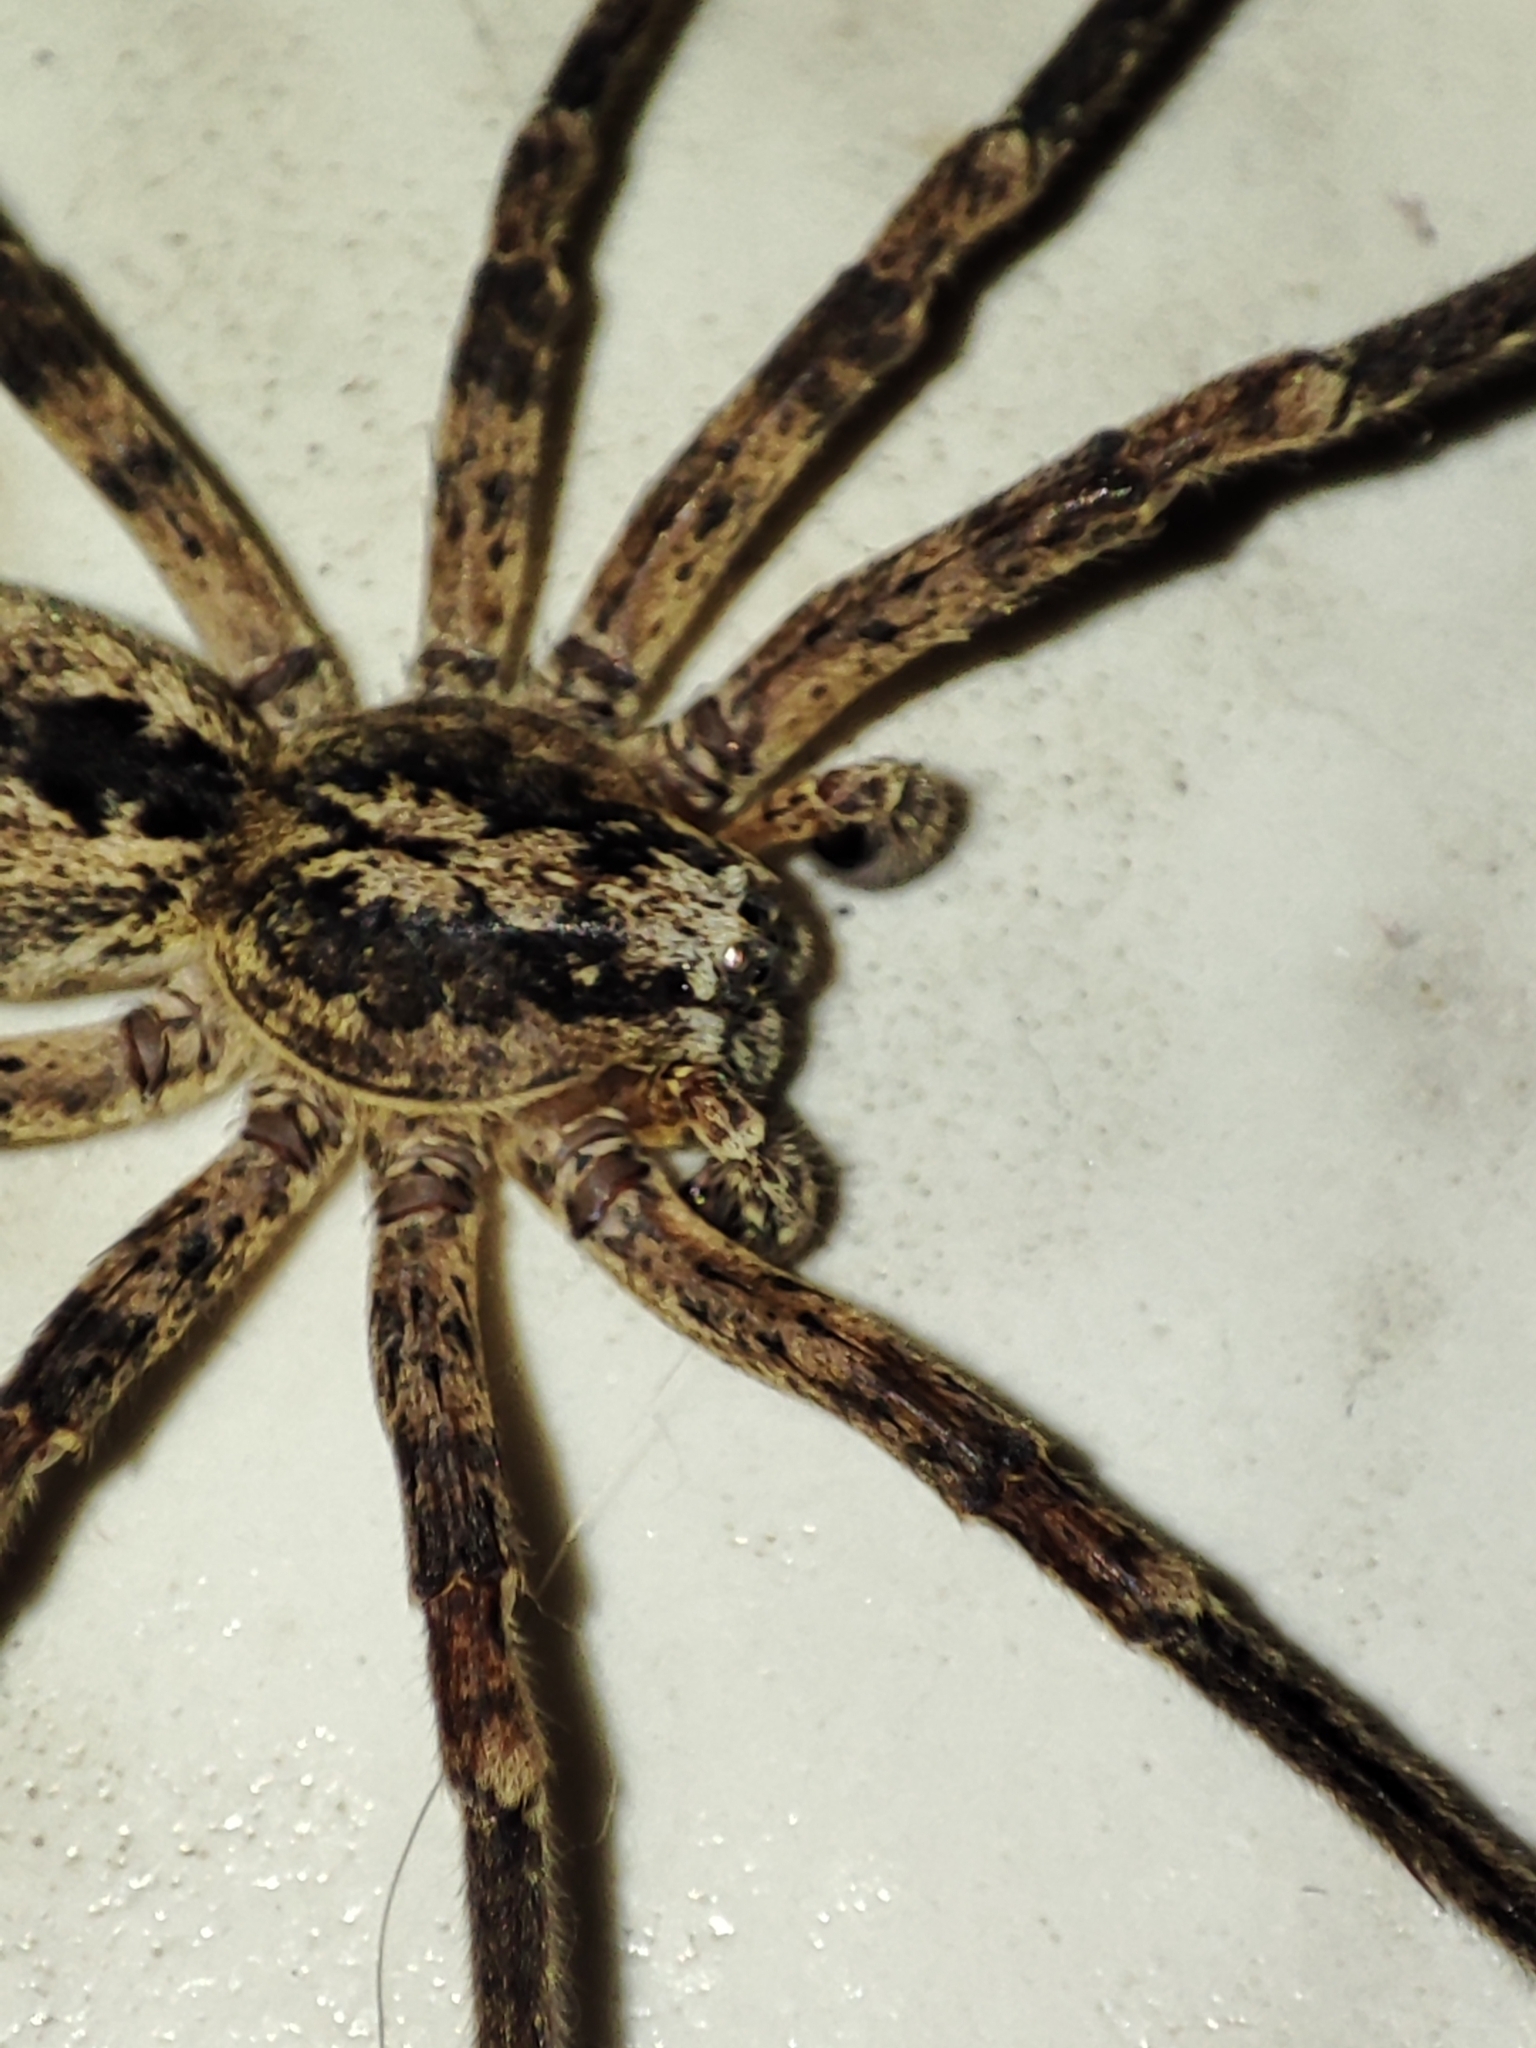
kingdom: Animalia
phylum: Arthropoda
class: Arachnida
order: Araneae
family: Zoropsidae
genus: Zoropsis
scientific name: Zoropsis spinimana
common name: Zoropsid spider
